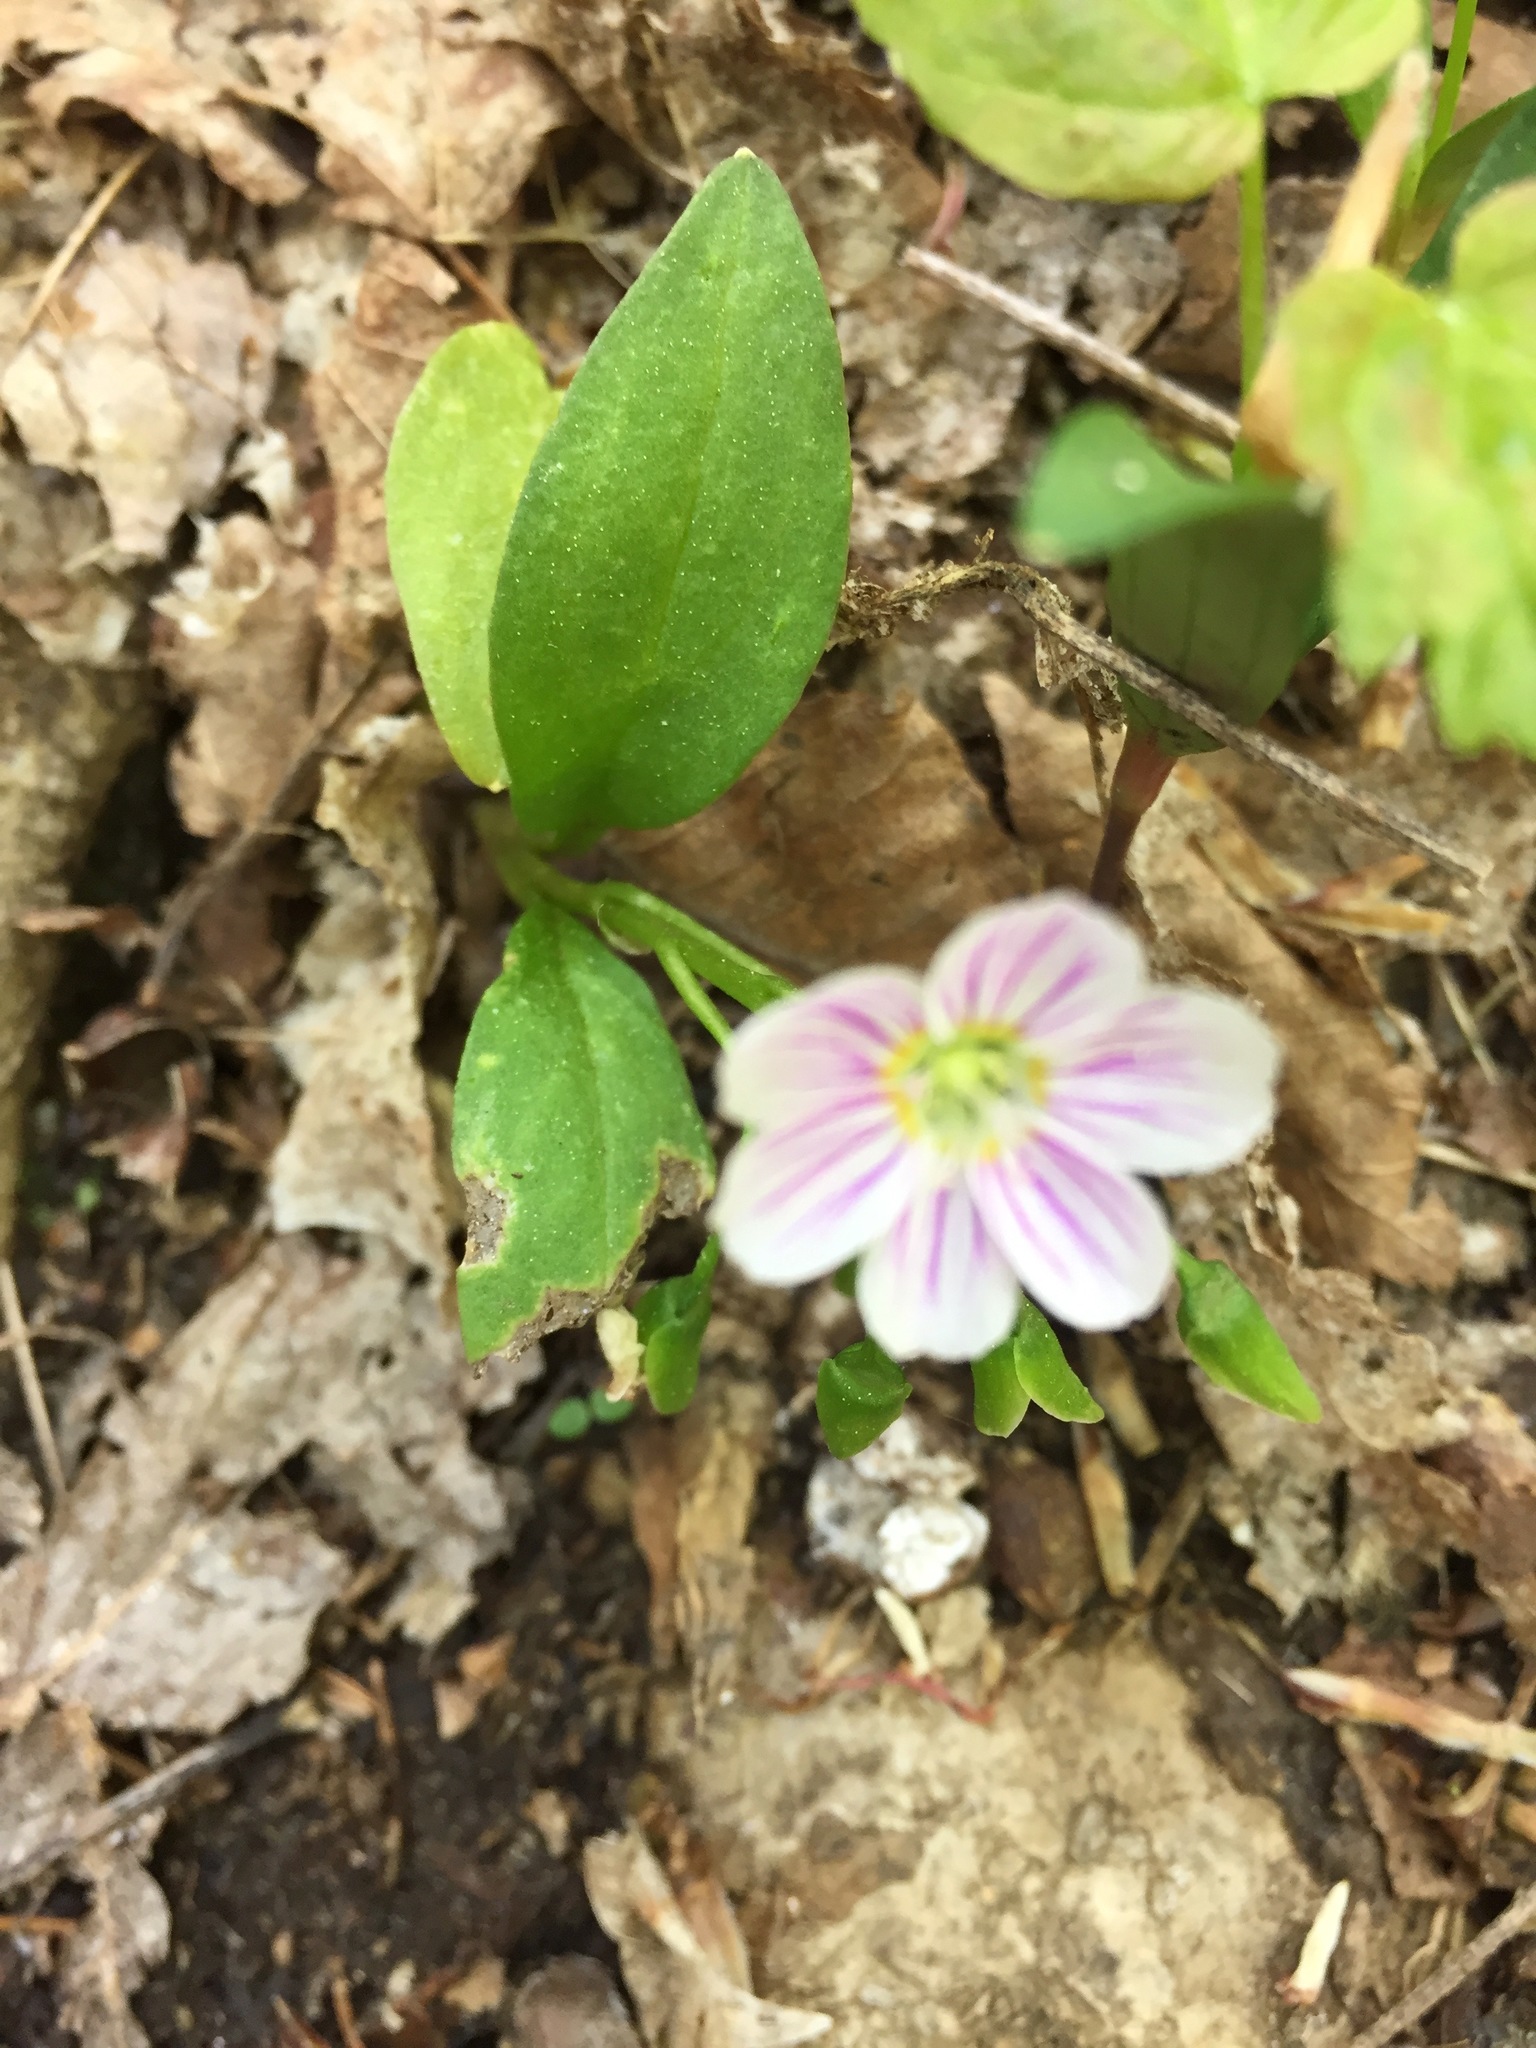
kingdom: Plantae
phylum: Tracheophyta
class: Magnoliopsida
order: Caryophyllales
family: Montiaceae
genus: Claytonia
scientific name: Claytonia caroliniana
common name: Carolina spring beauty
